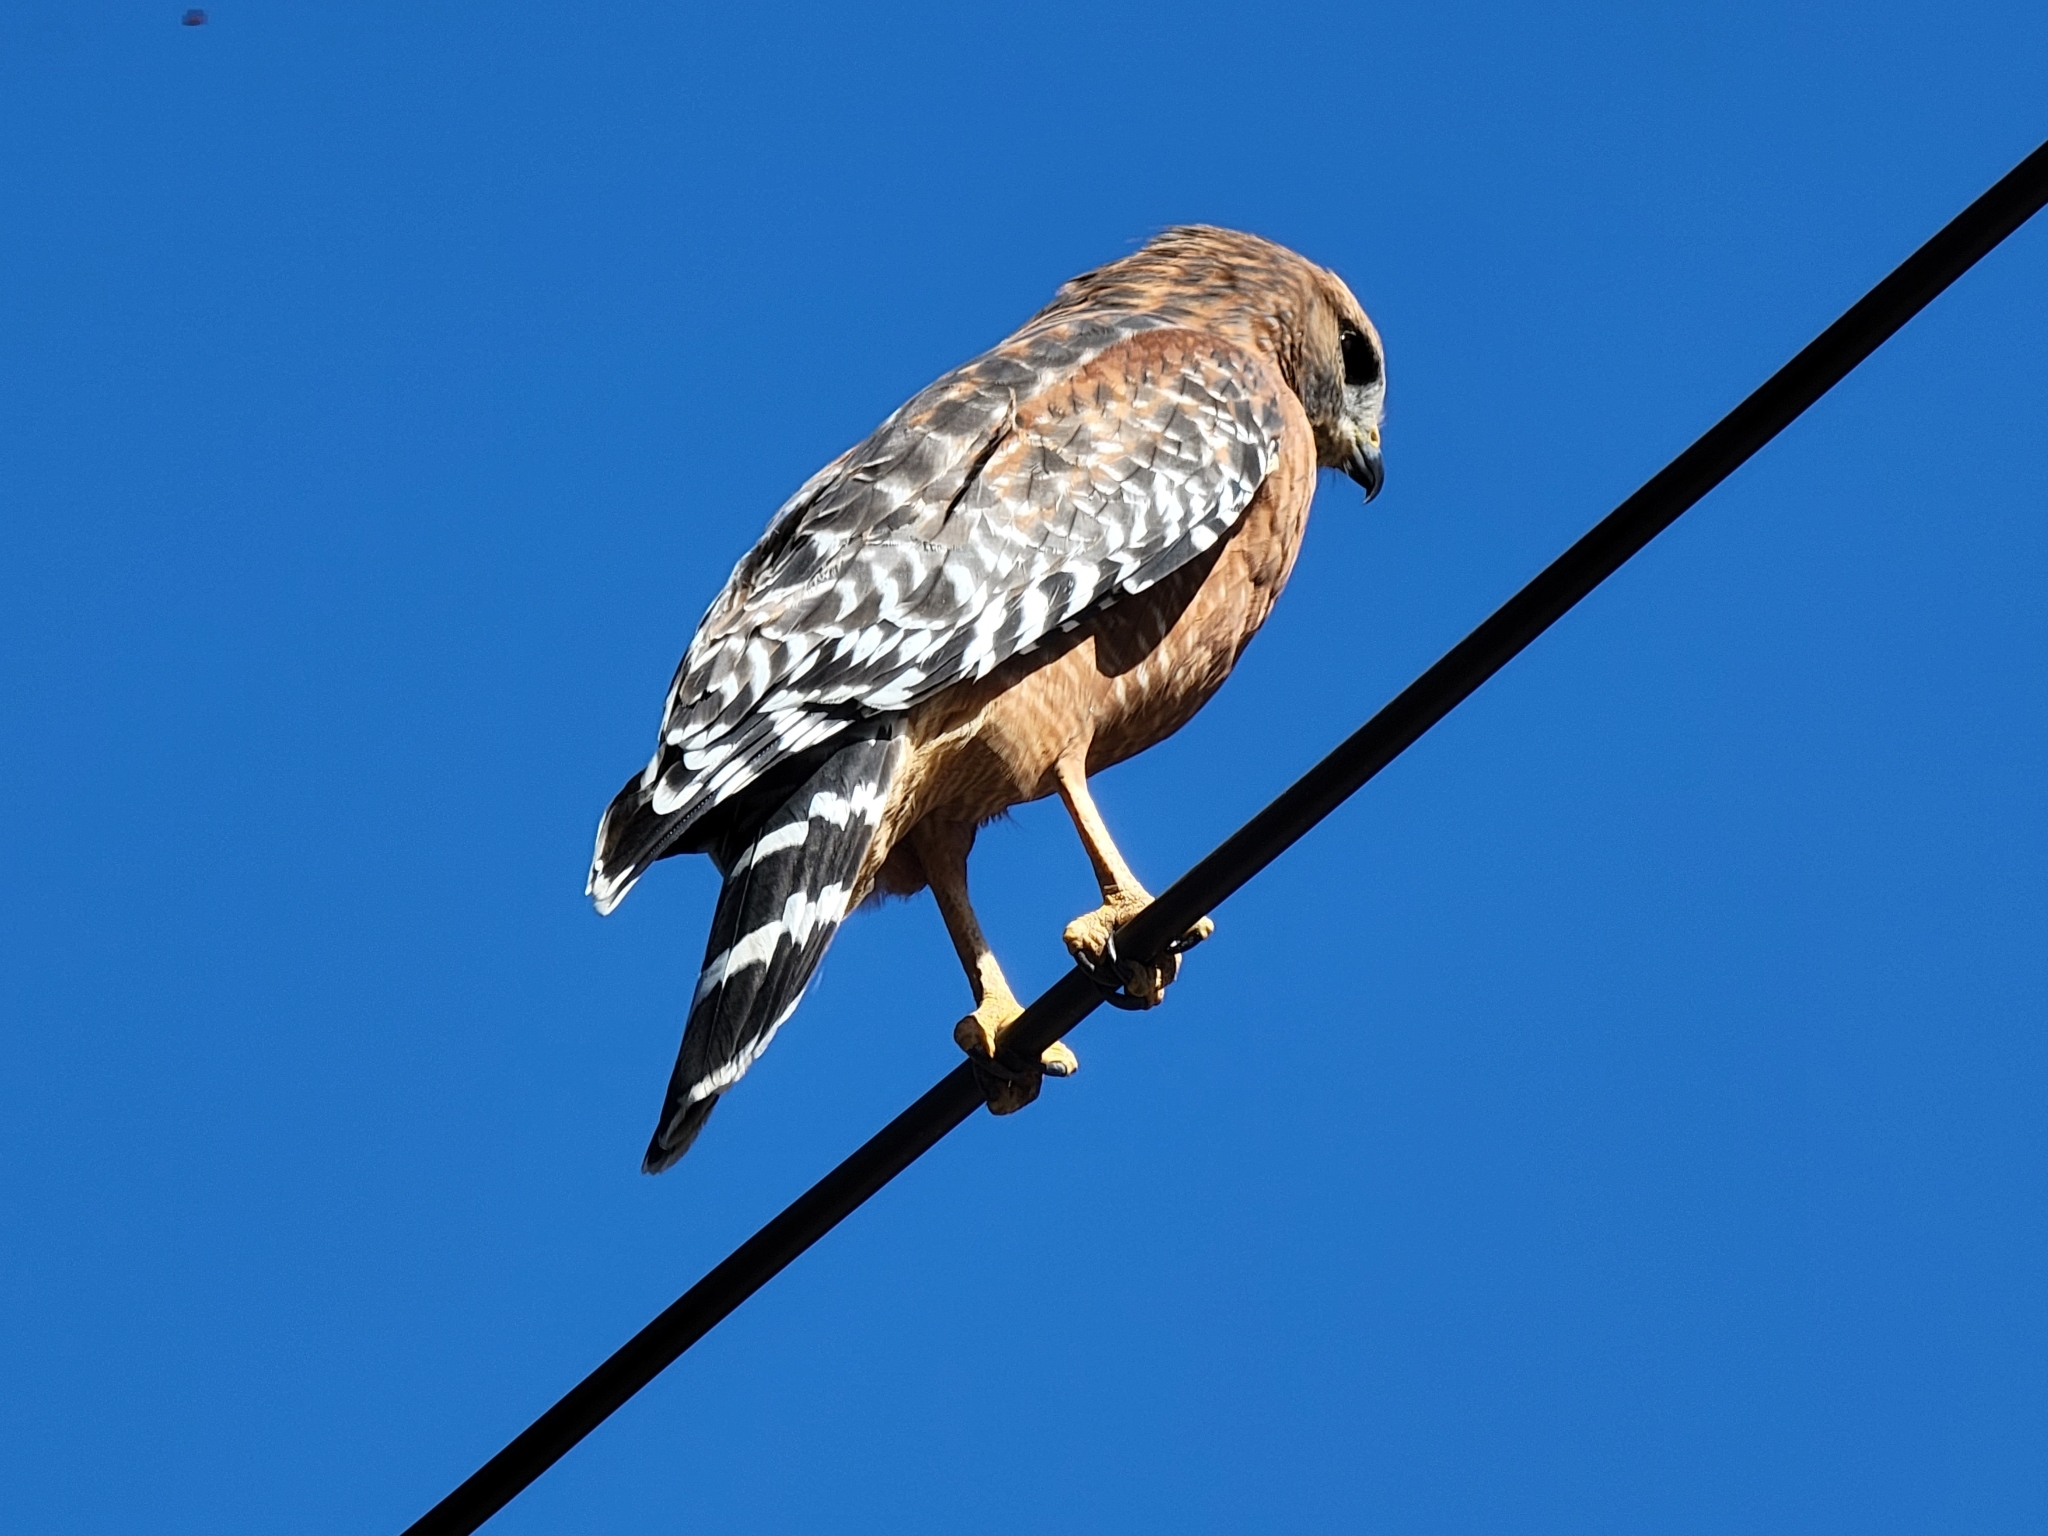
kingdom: Animalia
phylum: Chordata
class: Aves
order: Accipitriformes
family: Accipitridae
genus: Buteo
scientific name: Buteo lineatus
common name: Red-shouldered hawk
